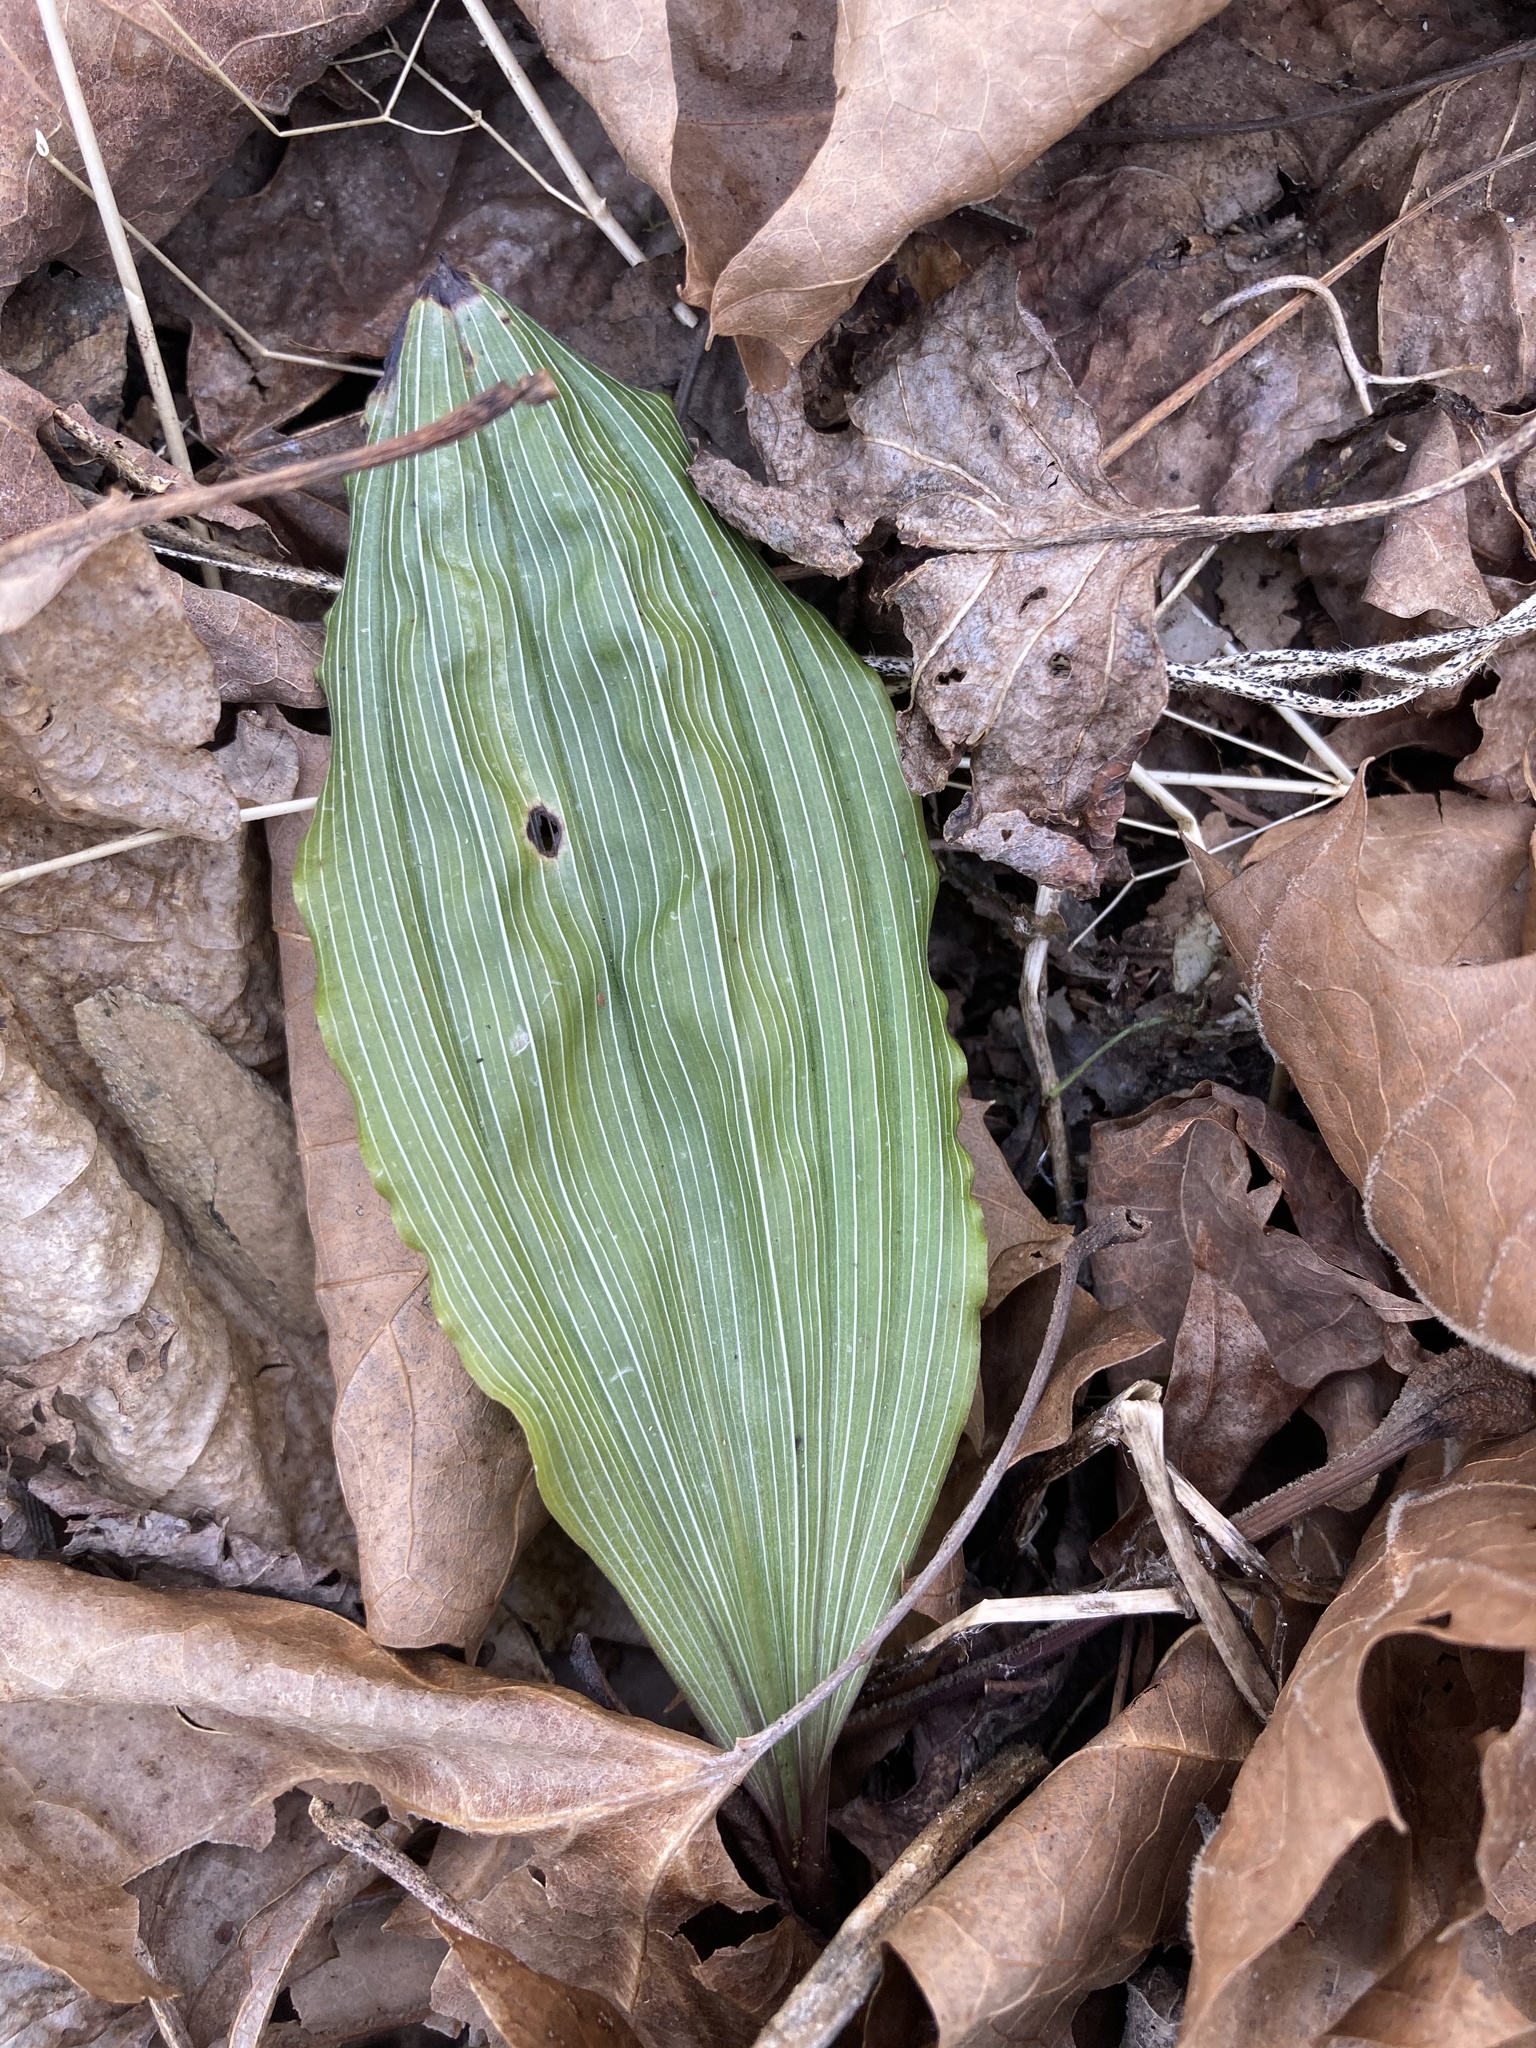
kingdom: Plantae
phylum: Tracheophyta
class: Liliopsida
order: Asparagales
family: Orchidaceae
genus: Aplectrum
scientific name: Aplectrum hyemale
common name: Adam-and-eve
